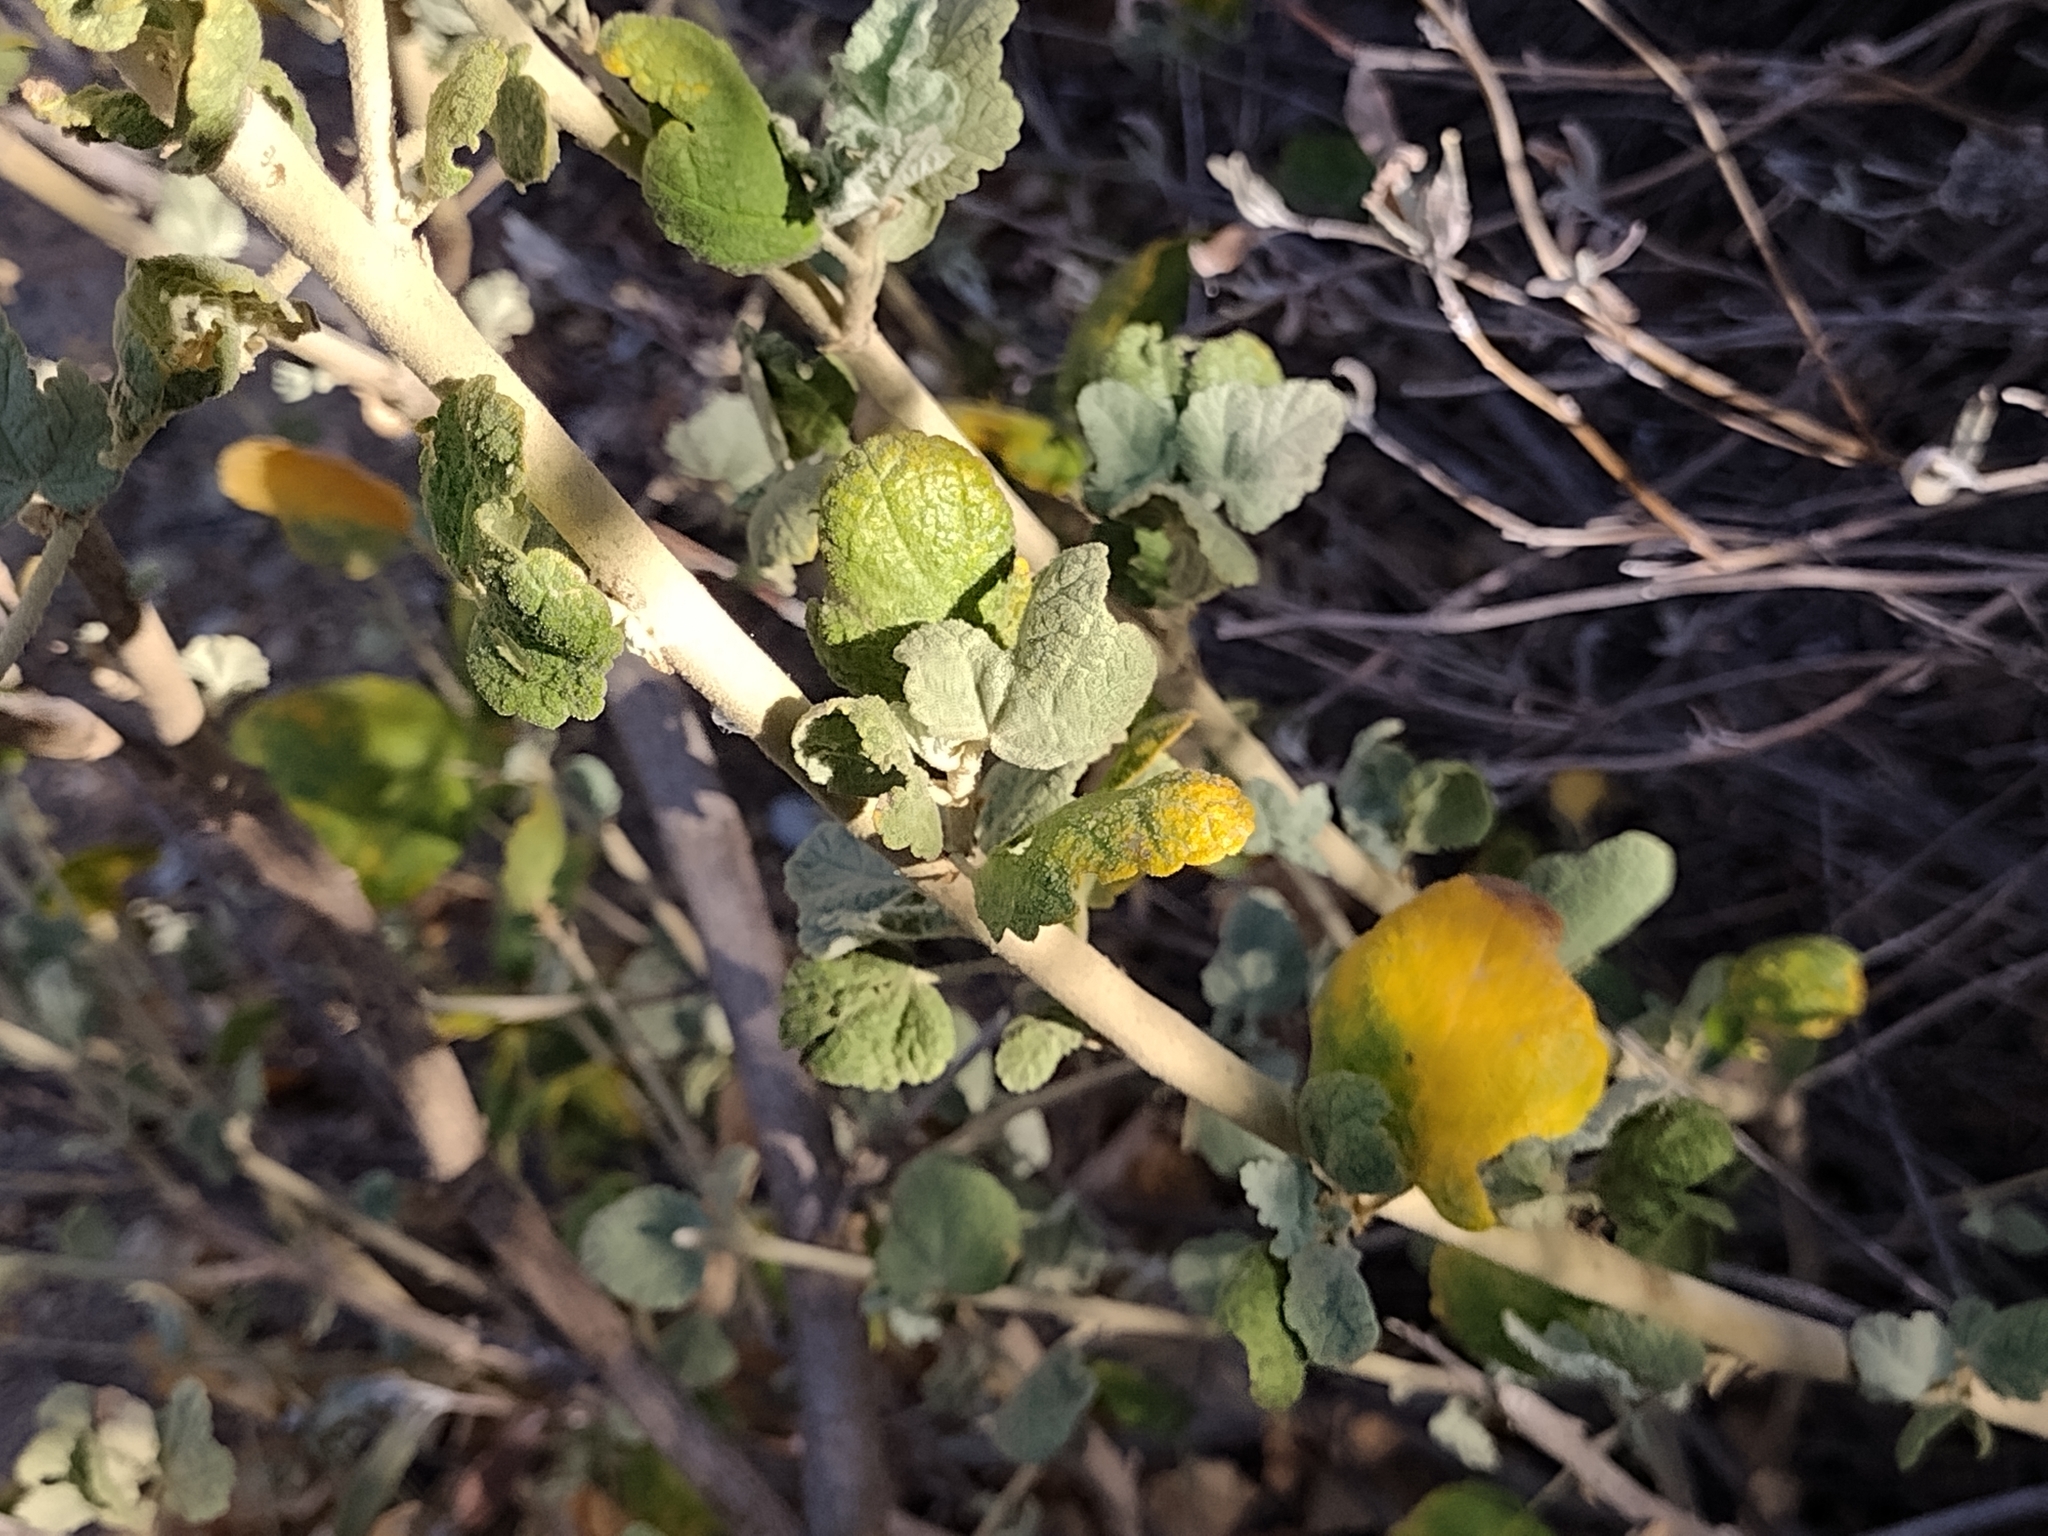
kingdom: Plantae
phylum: Tracheophyta
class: Magnoliopsida
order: Malvales
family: Malvaceae
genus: Malacothamnus
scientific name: Malacothamnus fasciculatus
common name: Sant cruz island bush-mallow
